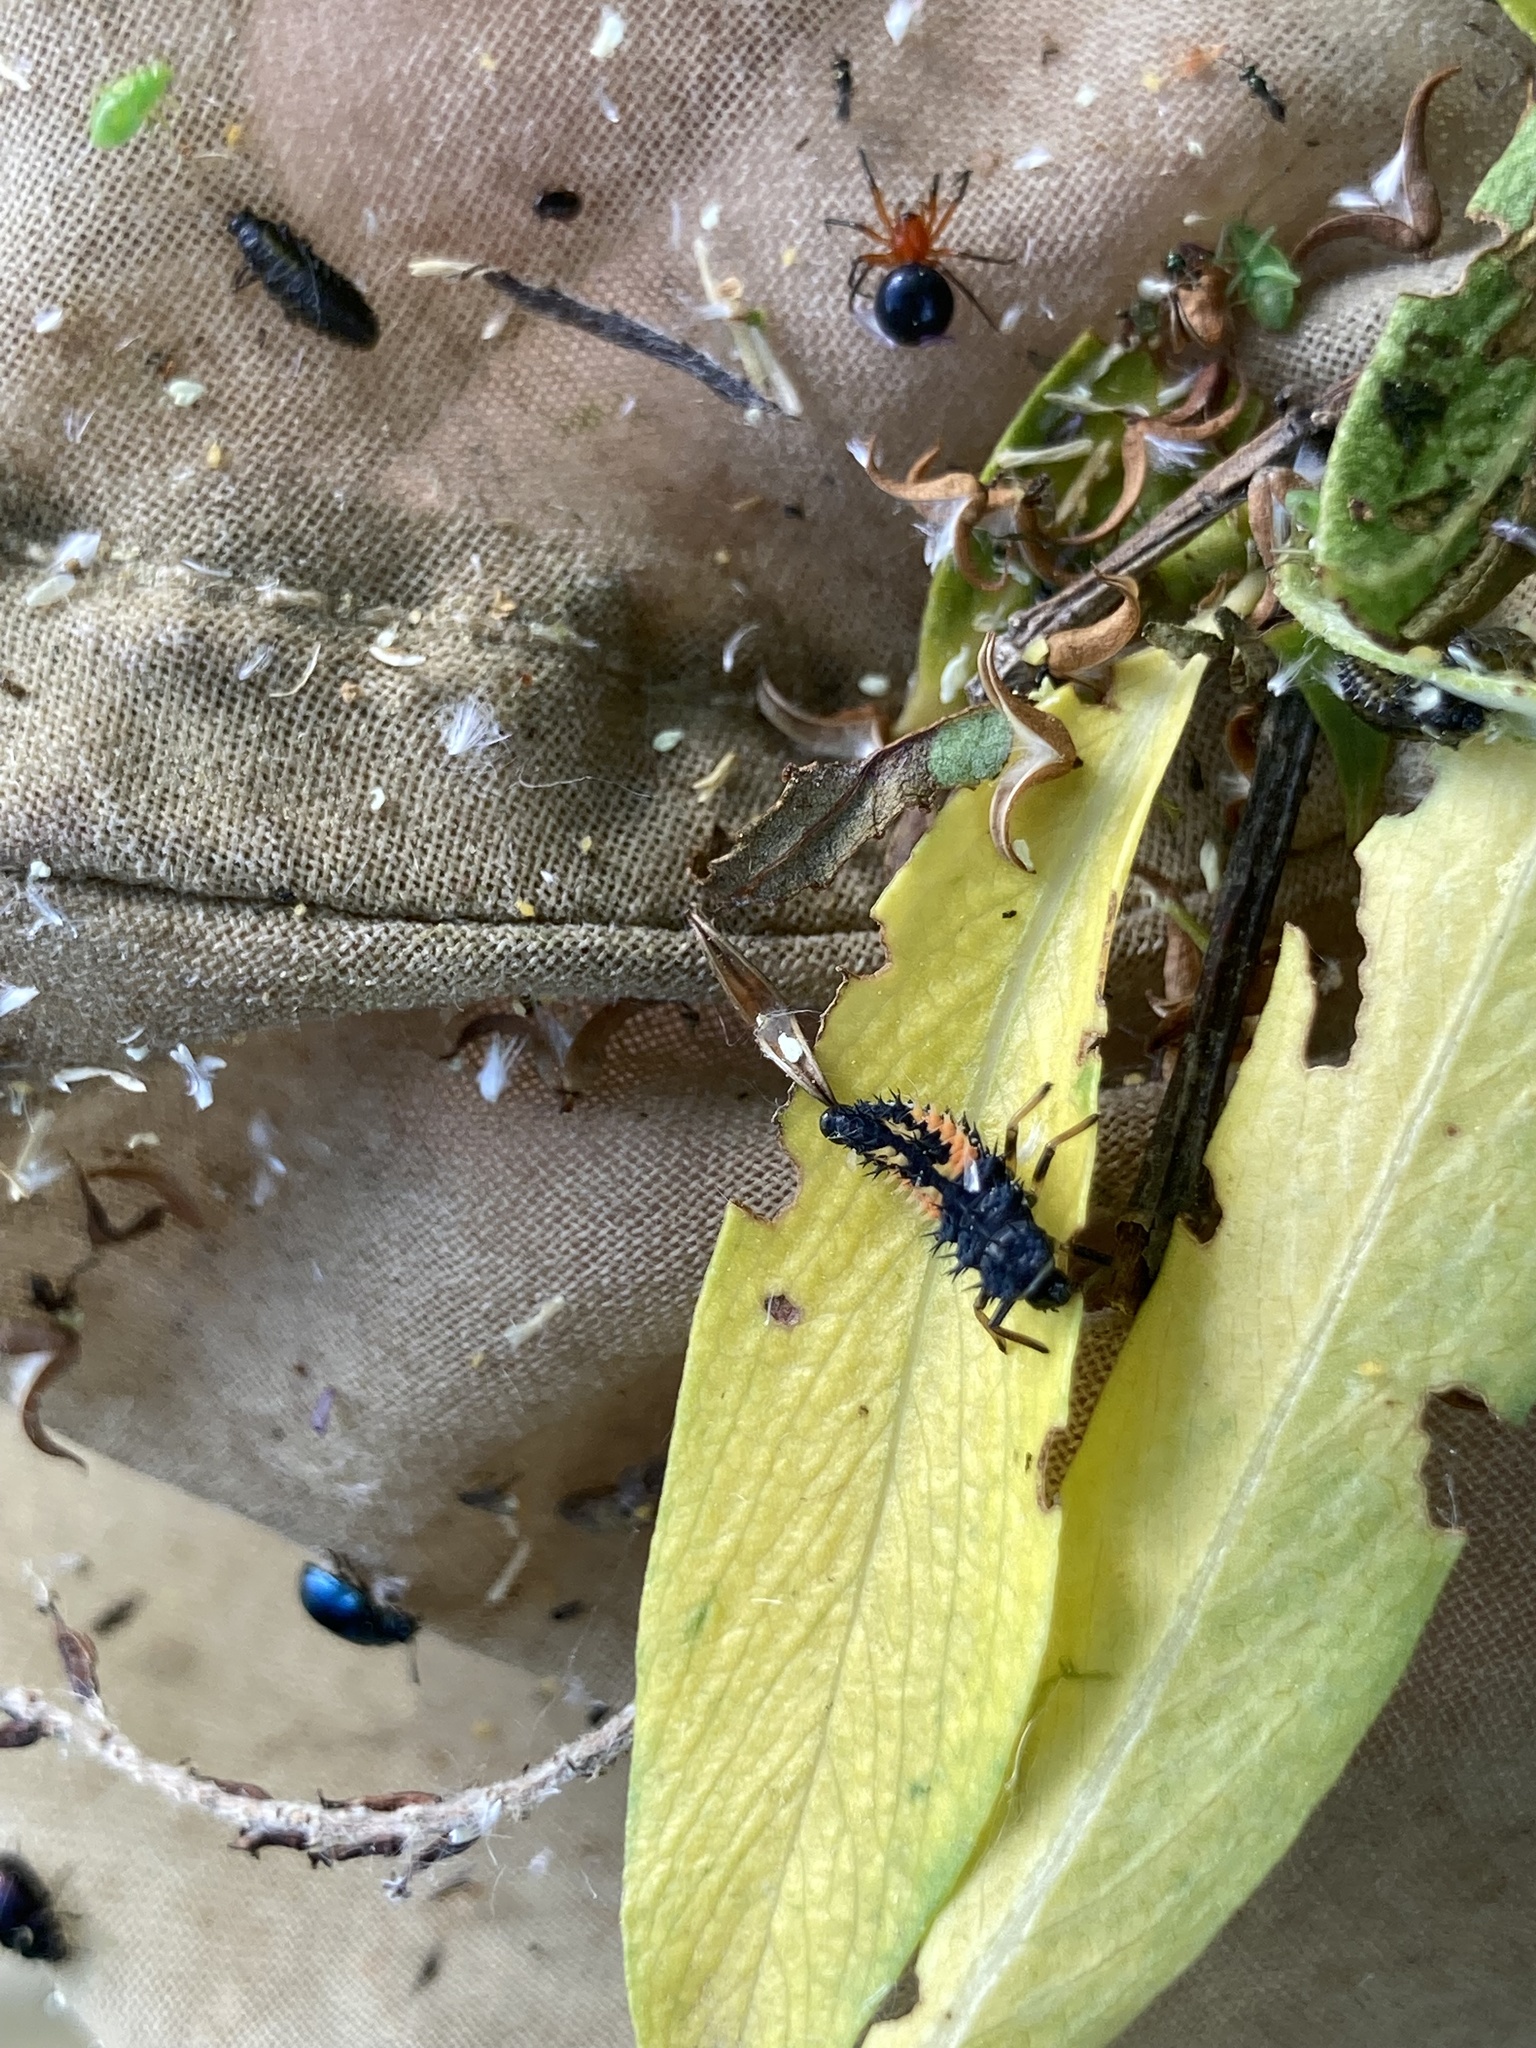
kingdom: Animalia
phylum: Arthropoda
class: Insecta
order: Coleoptera
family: Coccinellidae
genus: Harmonia
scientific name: Harmonia axyridis
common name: Harlequin ladybird
